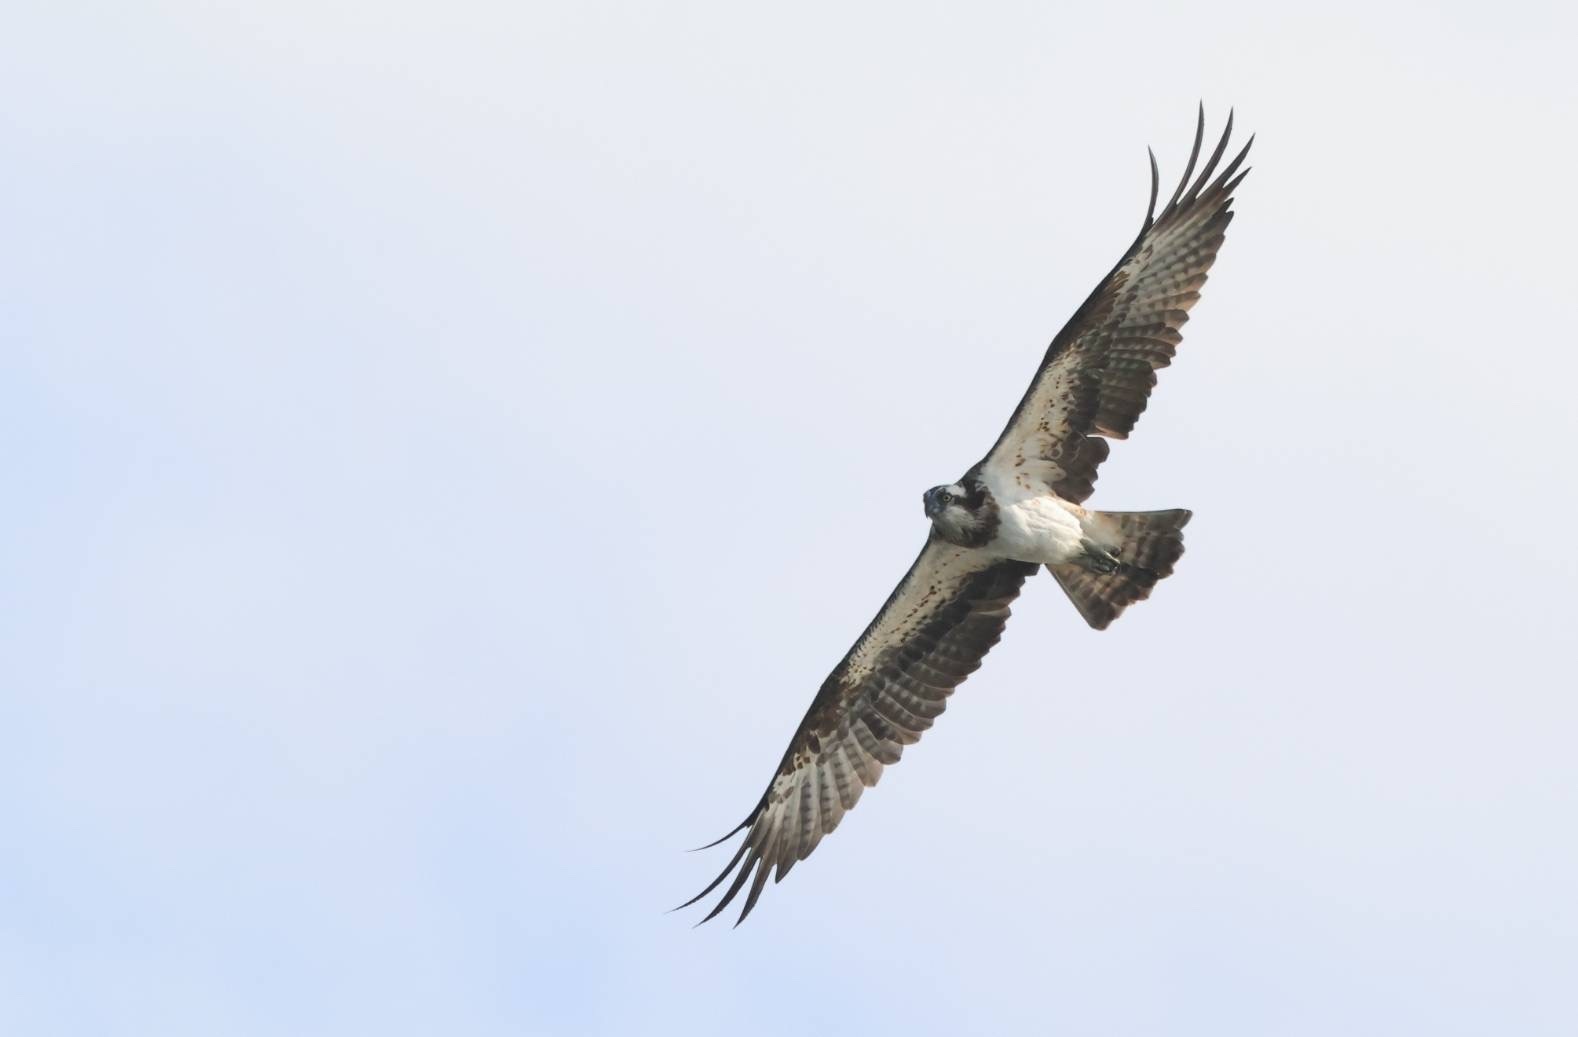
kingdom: Animalia
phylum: Chordata
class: Aves
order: Accipitriformes
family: Pandionidae
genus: Pandion
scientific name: Pandion haliaetus
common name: Osprey
